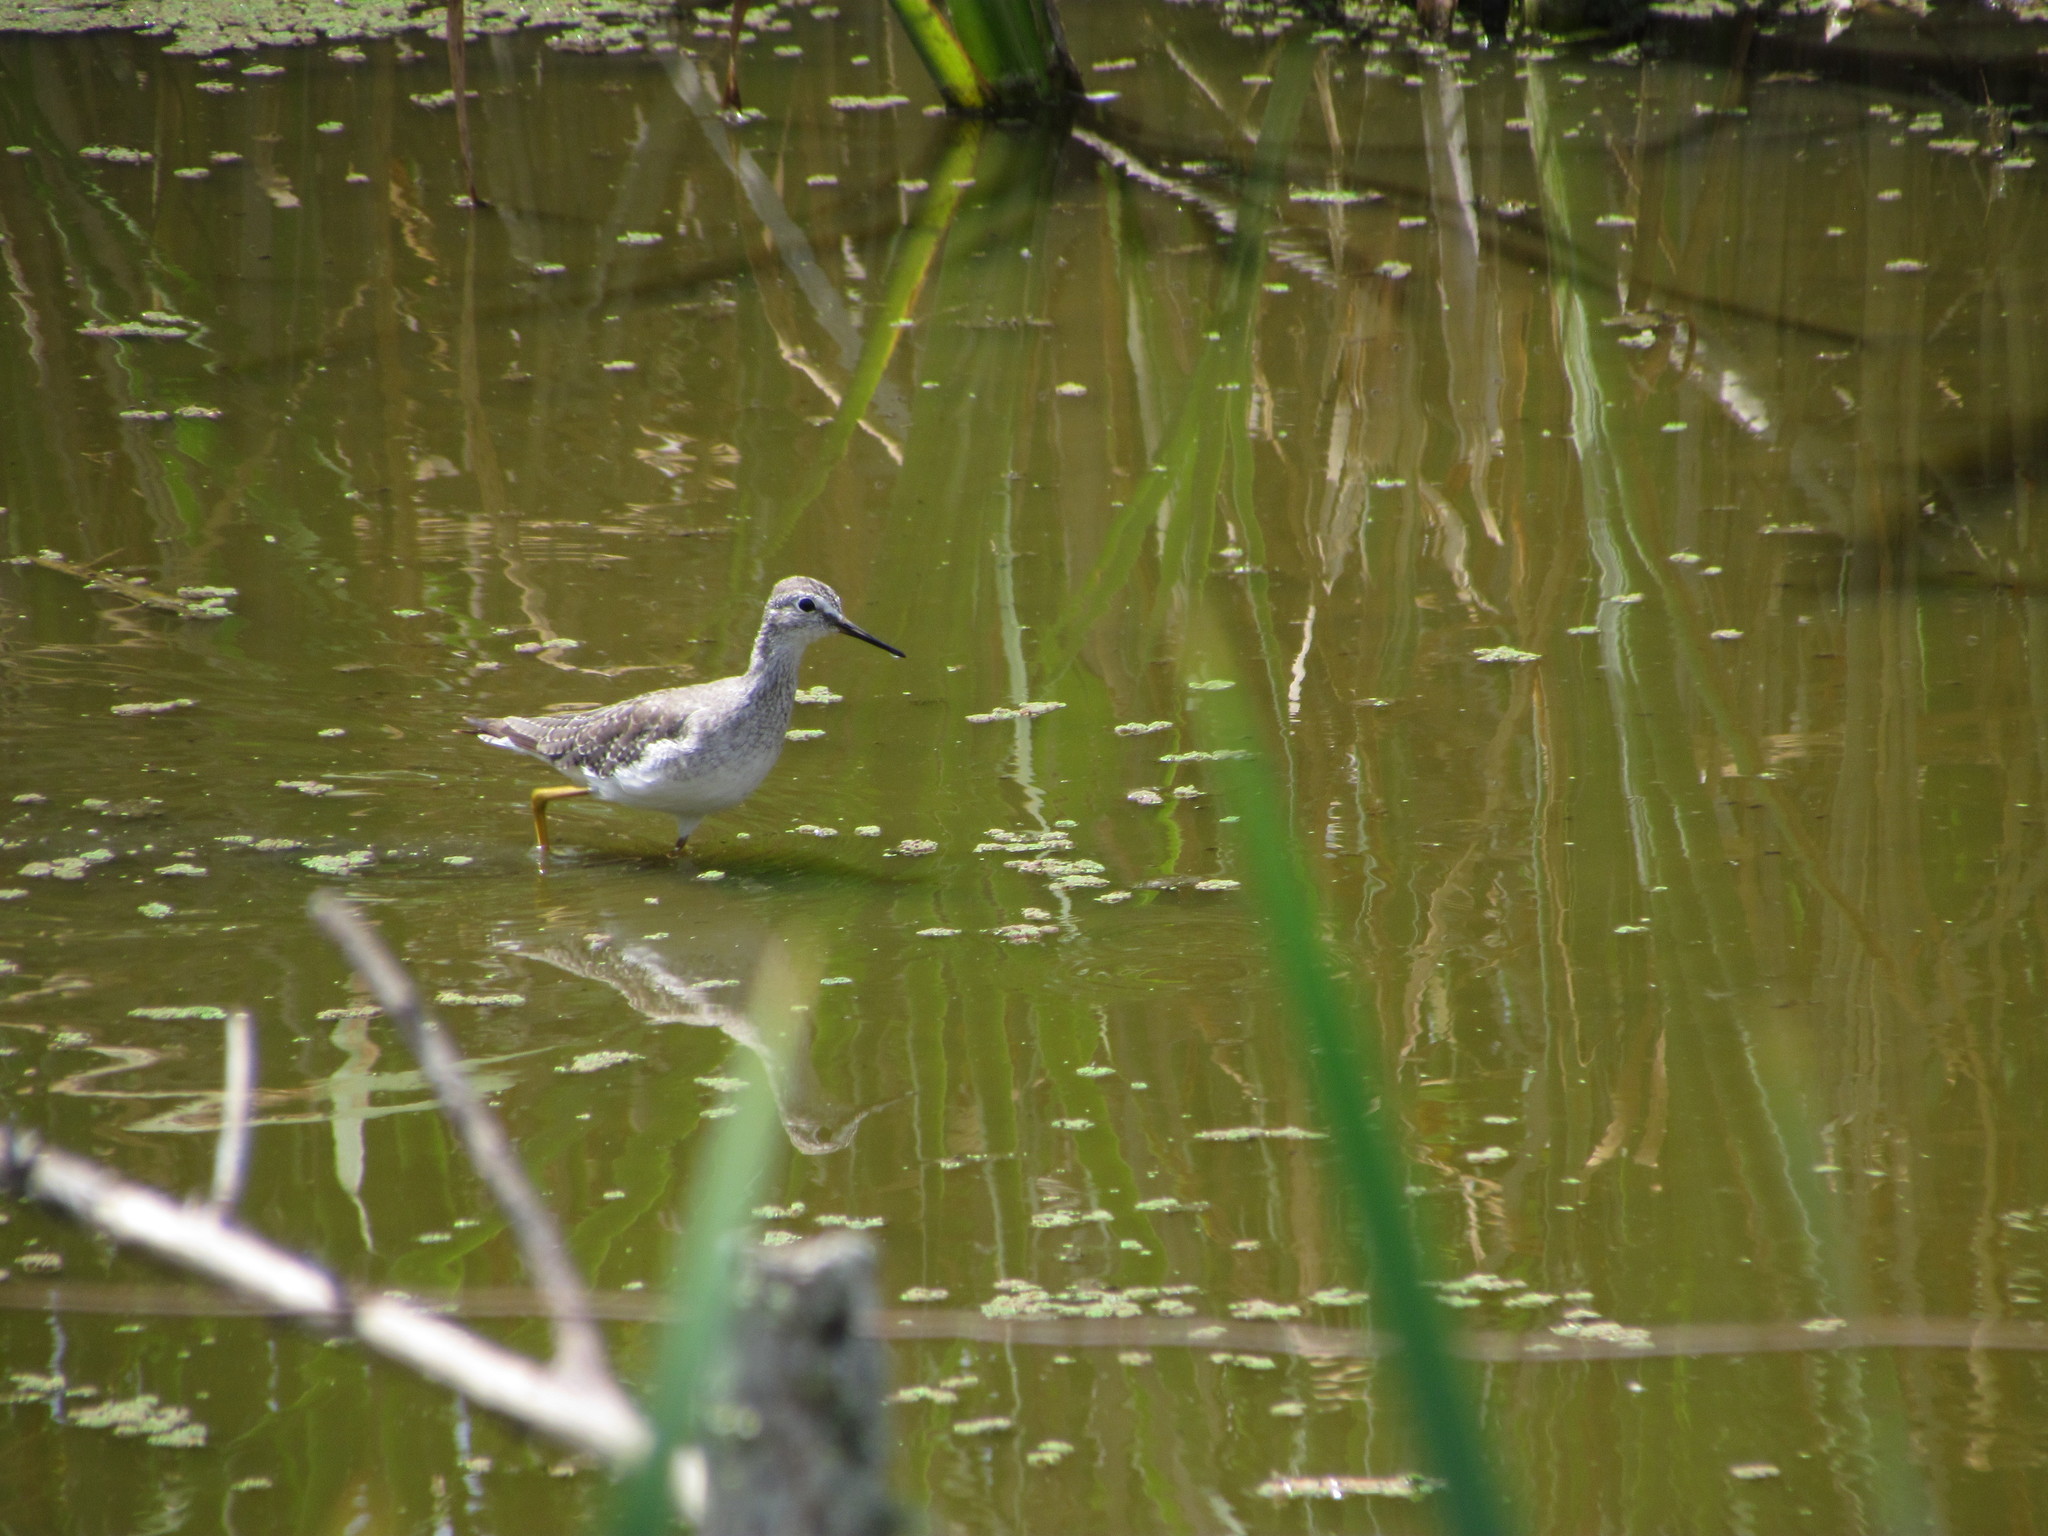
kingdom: Animalia
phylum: Chordata
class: Aves
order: Charadriiformes
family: Scolopacidae
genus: Tringa
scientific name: Tringa flavipes
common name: Lesser yellowlegs
